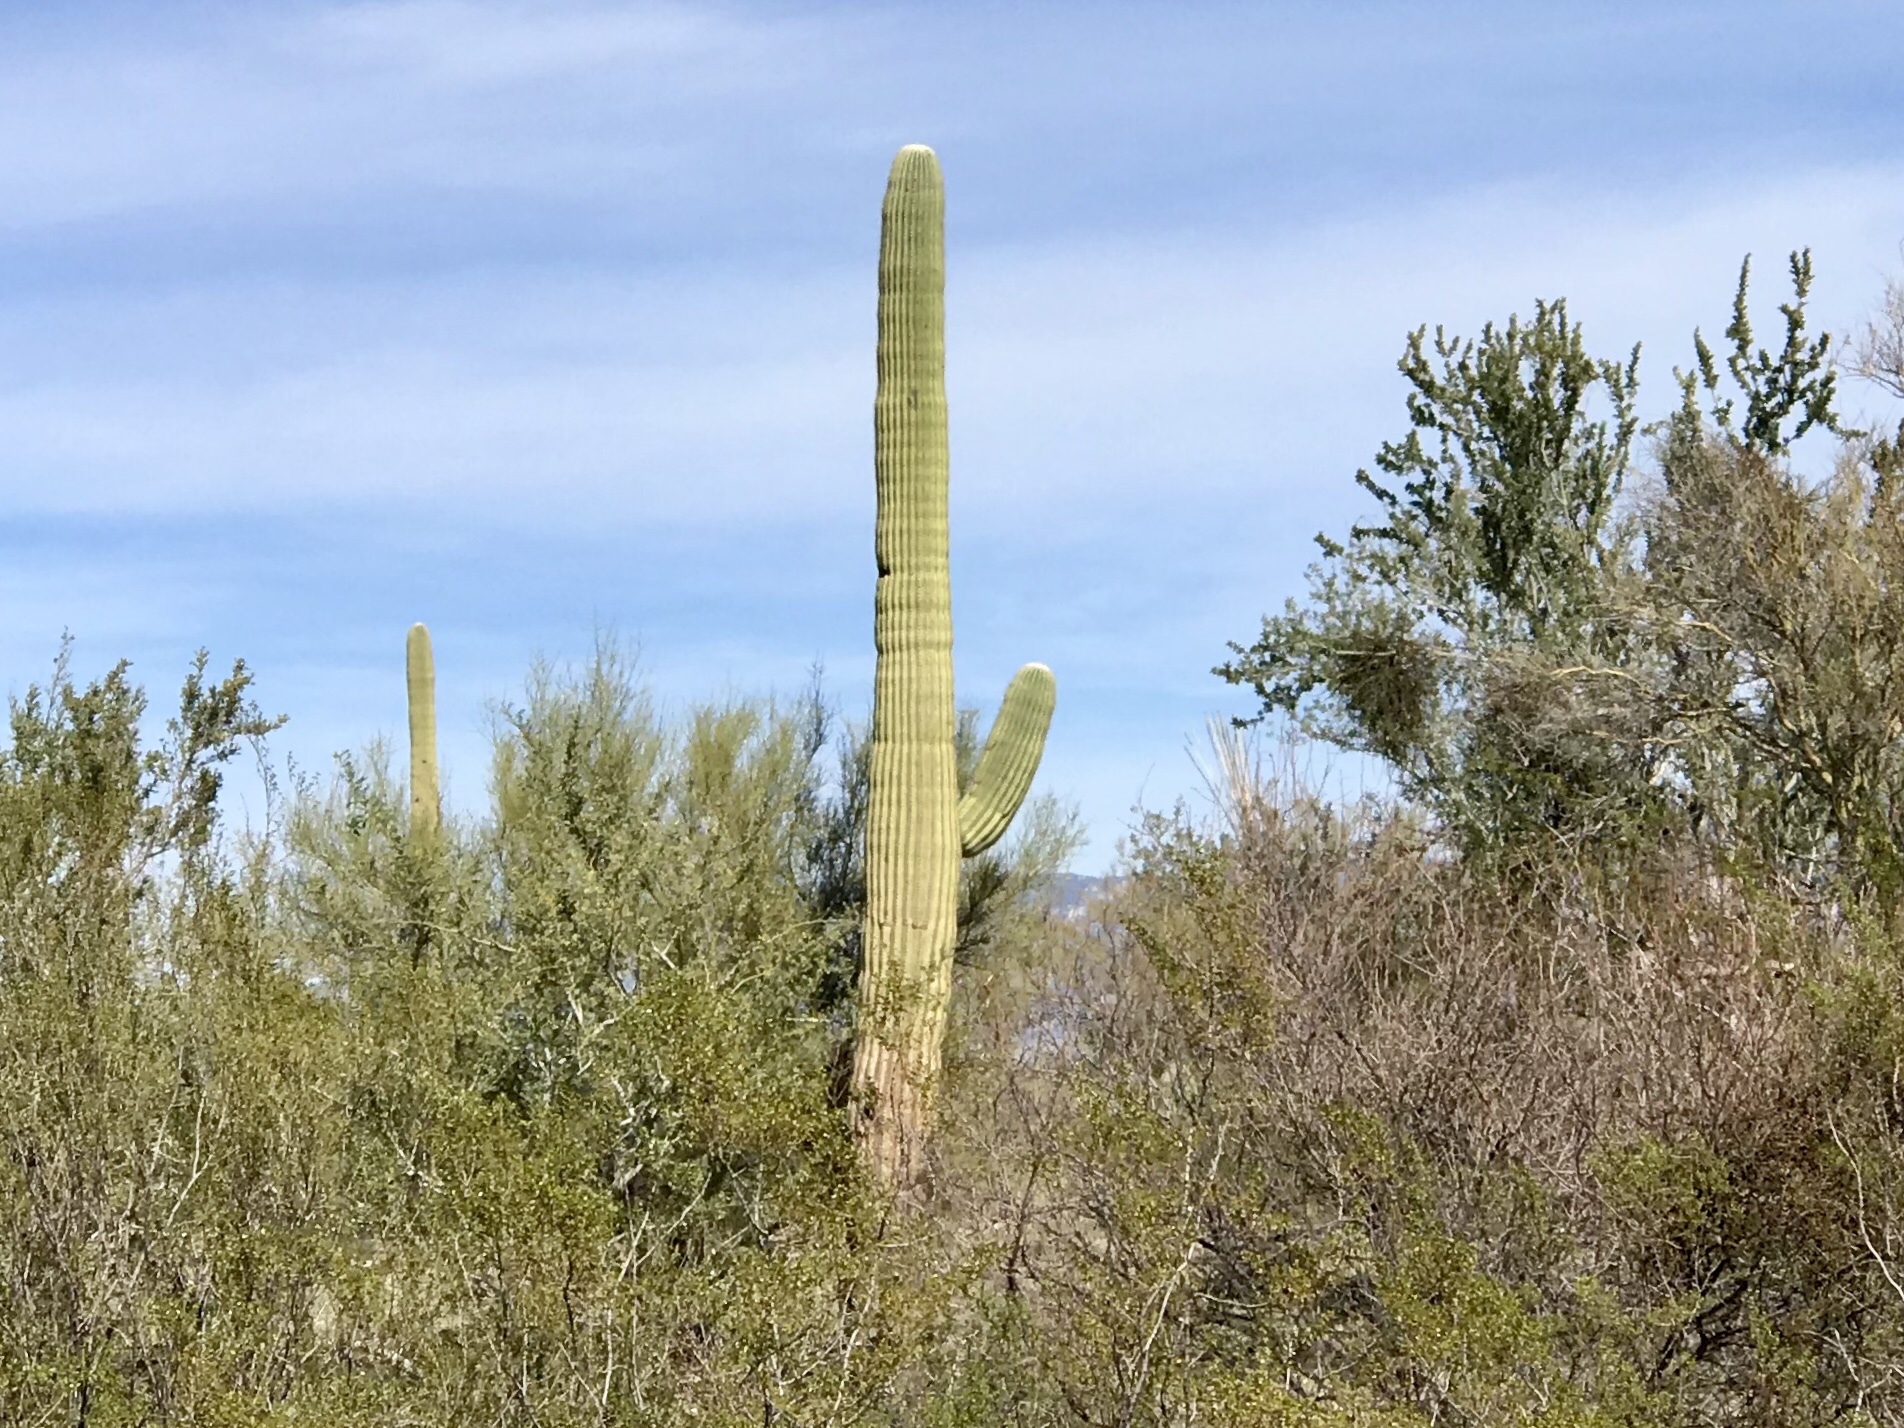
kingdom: Plantae
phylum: Tracheophyta
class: Magnoliopsida
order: Caryophyllales
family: Cactaceae
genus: Carnegiea
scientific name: Carnegiea gigantea
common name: Saguaro
